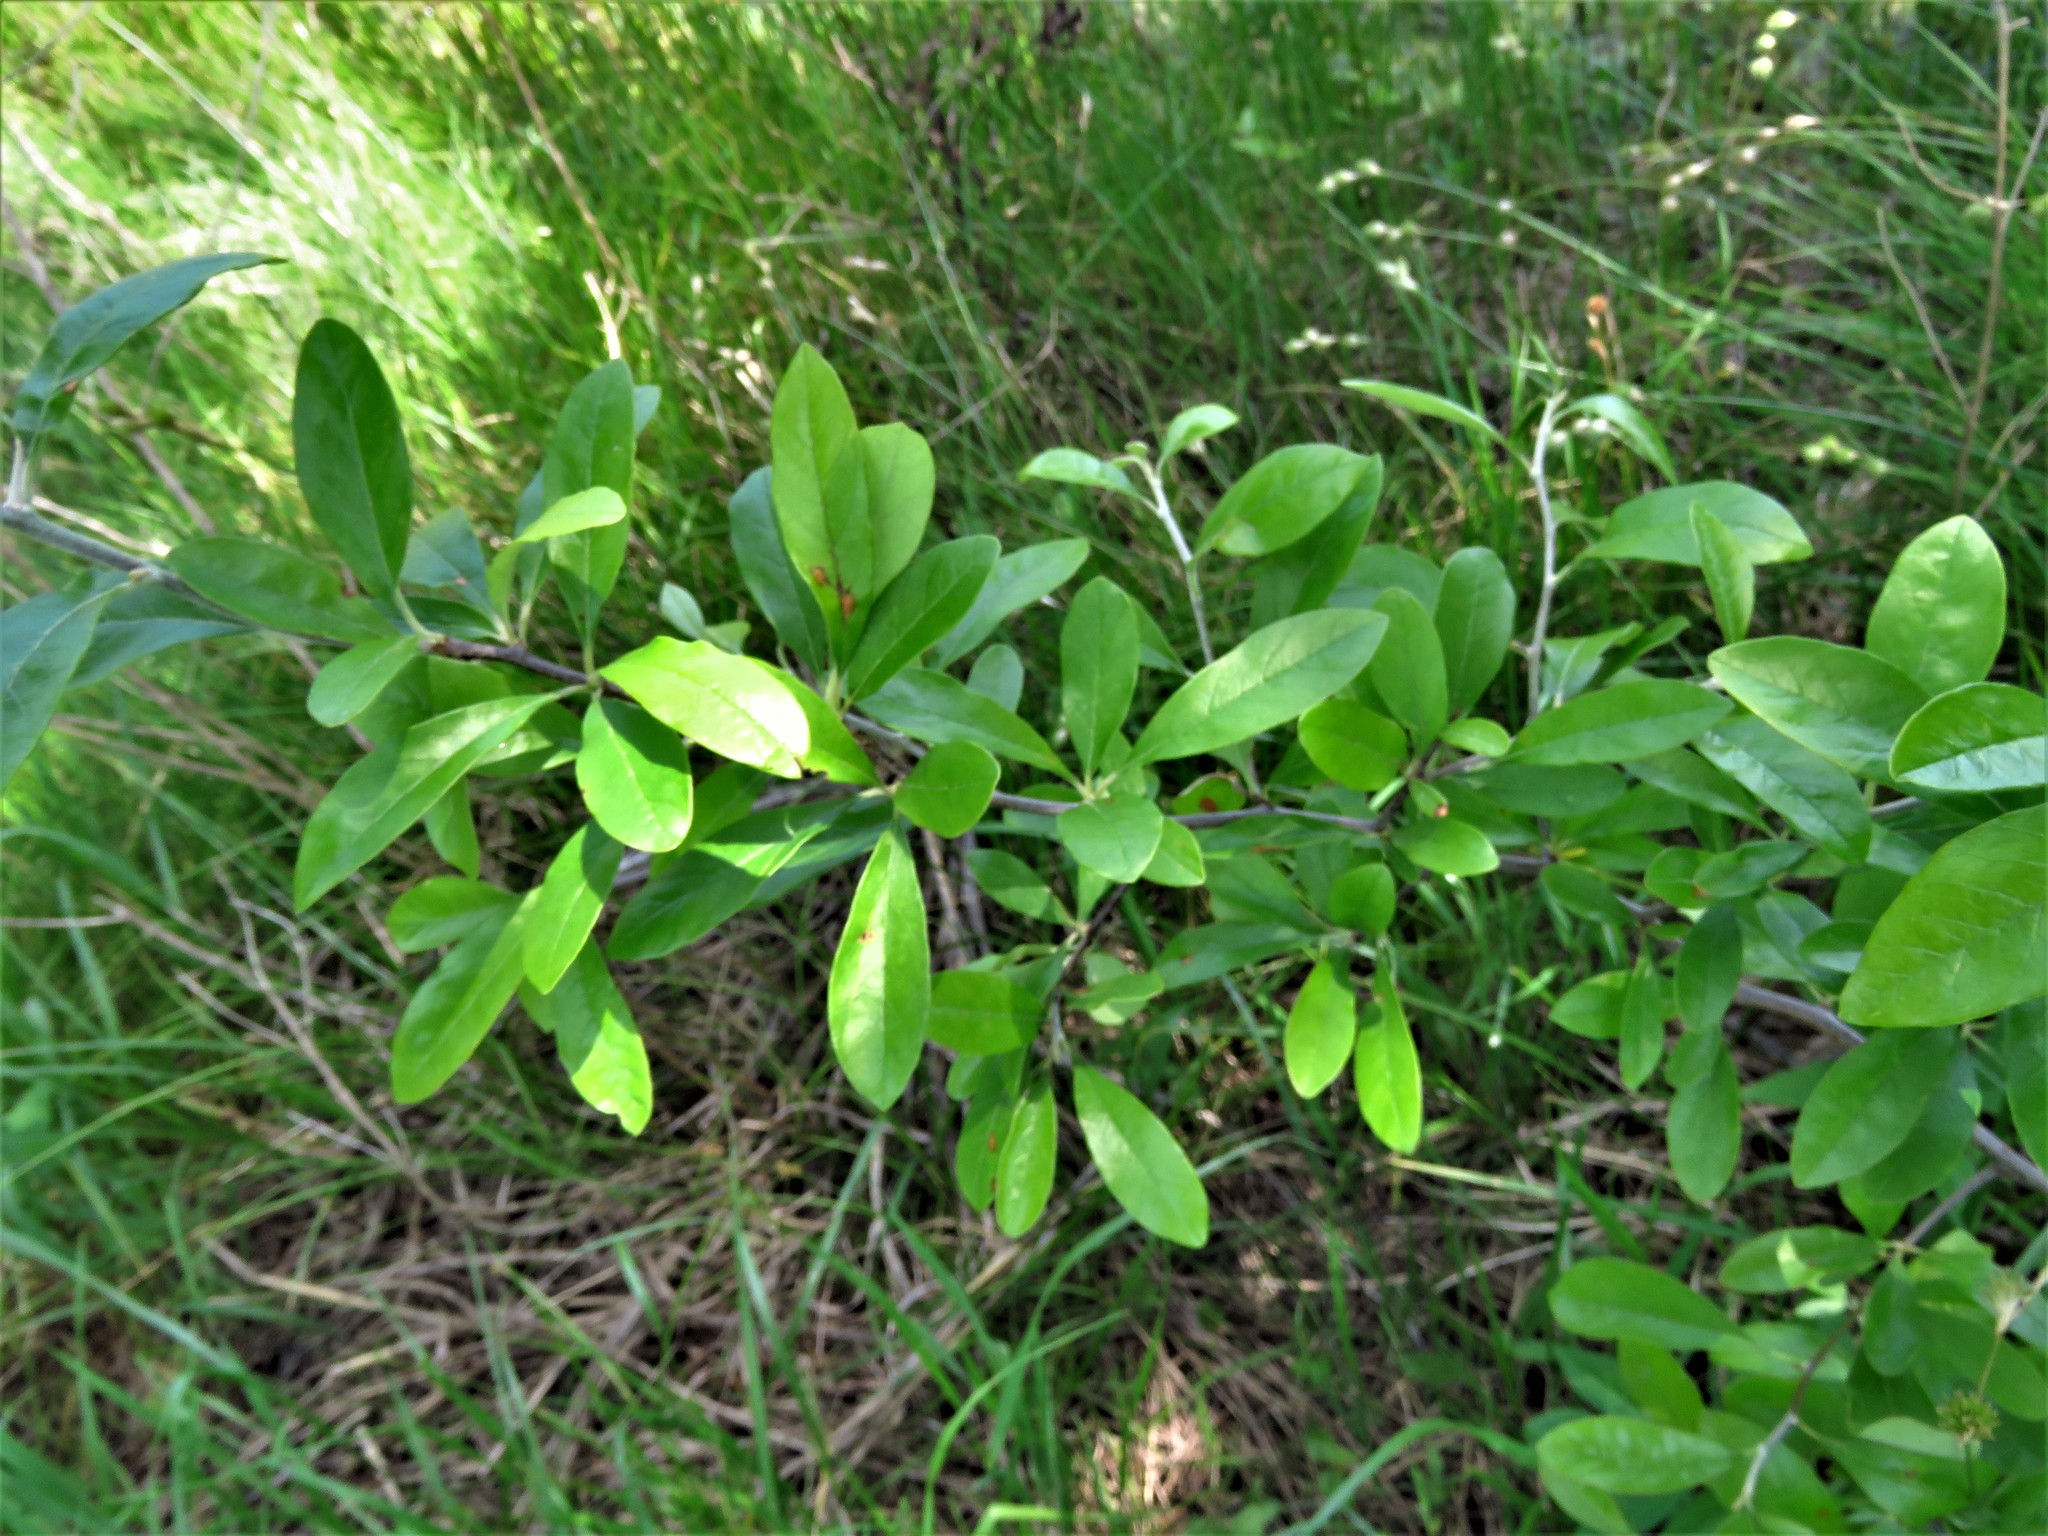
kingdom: Plantae
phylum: Tracheophyta
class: Magnoliopsida
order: Ericales
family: Sapotaceae
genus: Sideroxylon
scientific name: Sideroxylon lanuginosum
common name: Chittamwood
